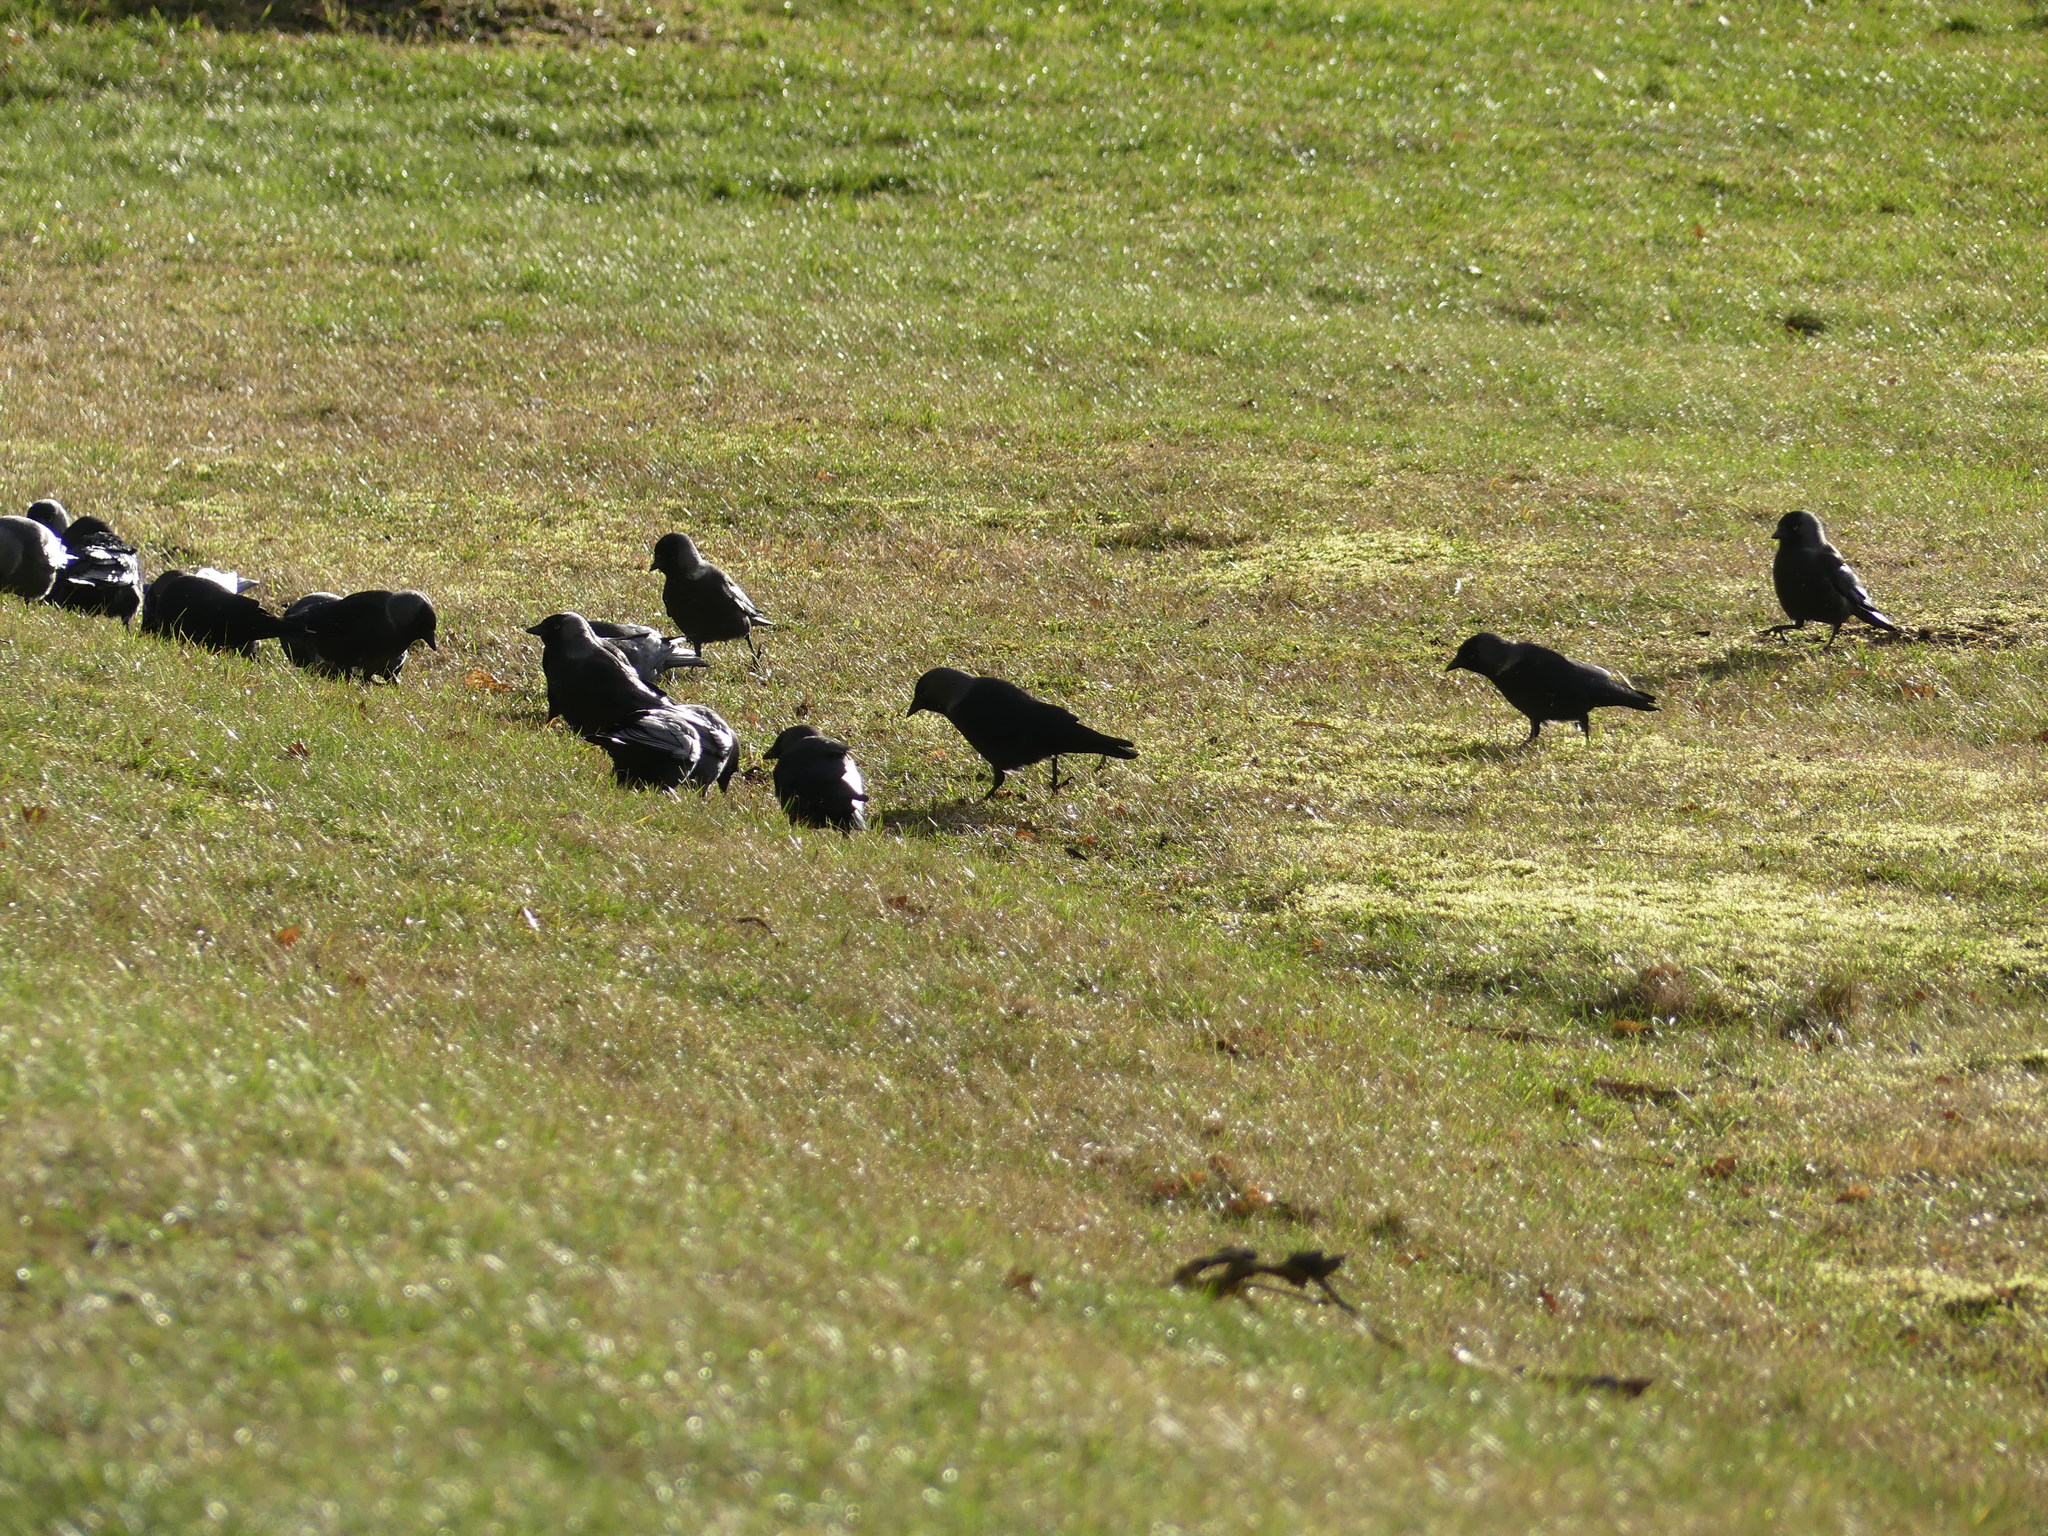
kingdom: Animalia
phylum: Chordata
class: Aves
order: Passeriformes
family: Corvidae
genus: Coloeus
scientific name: Coloeus monedula
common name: Western jackdaw
